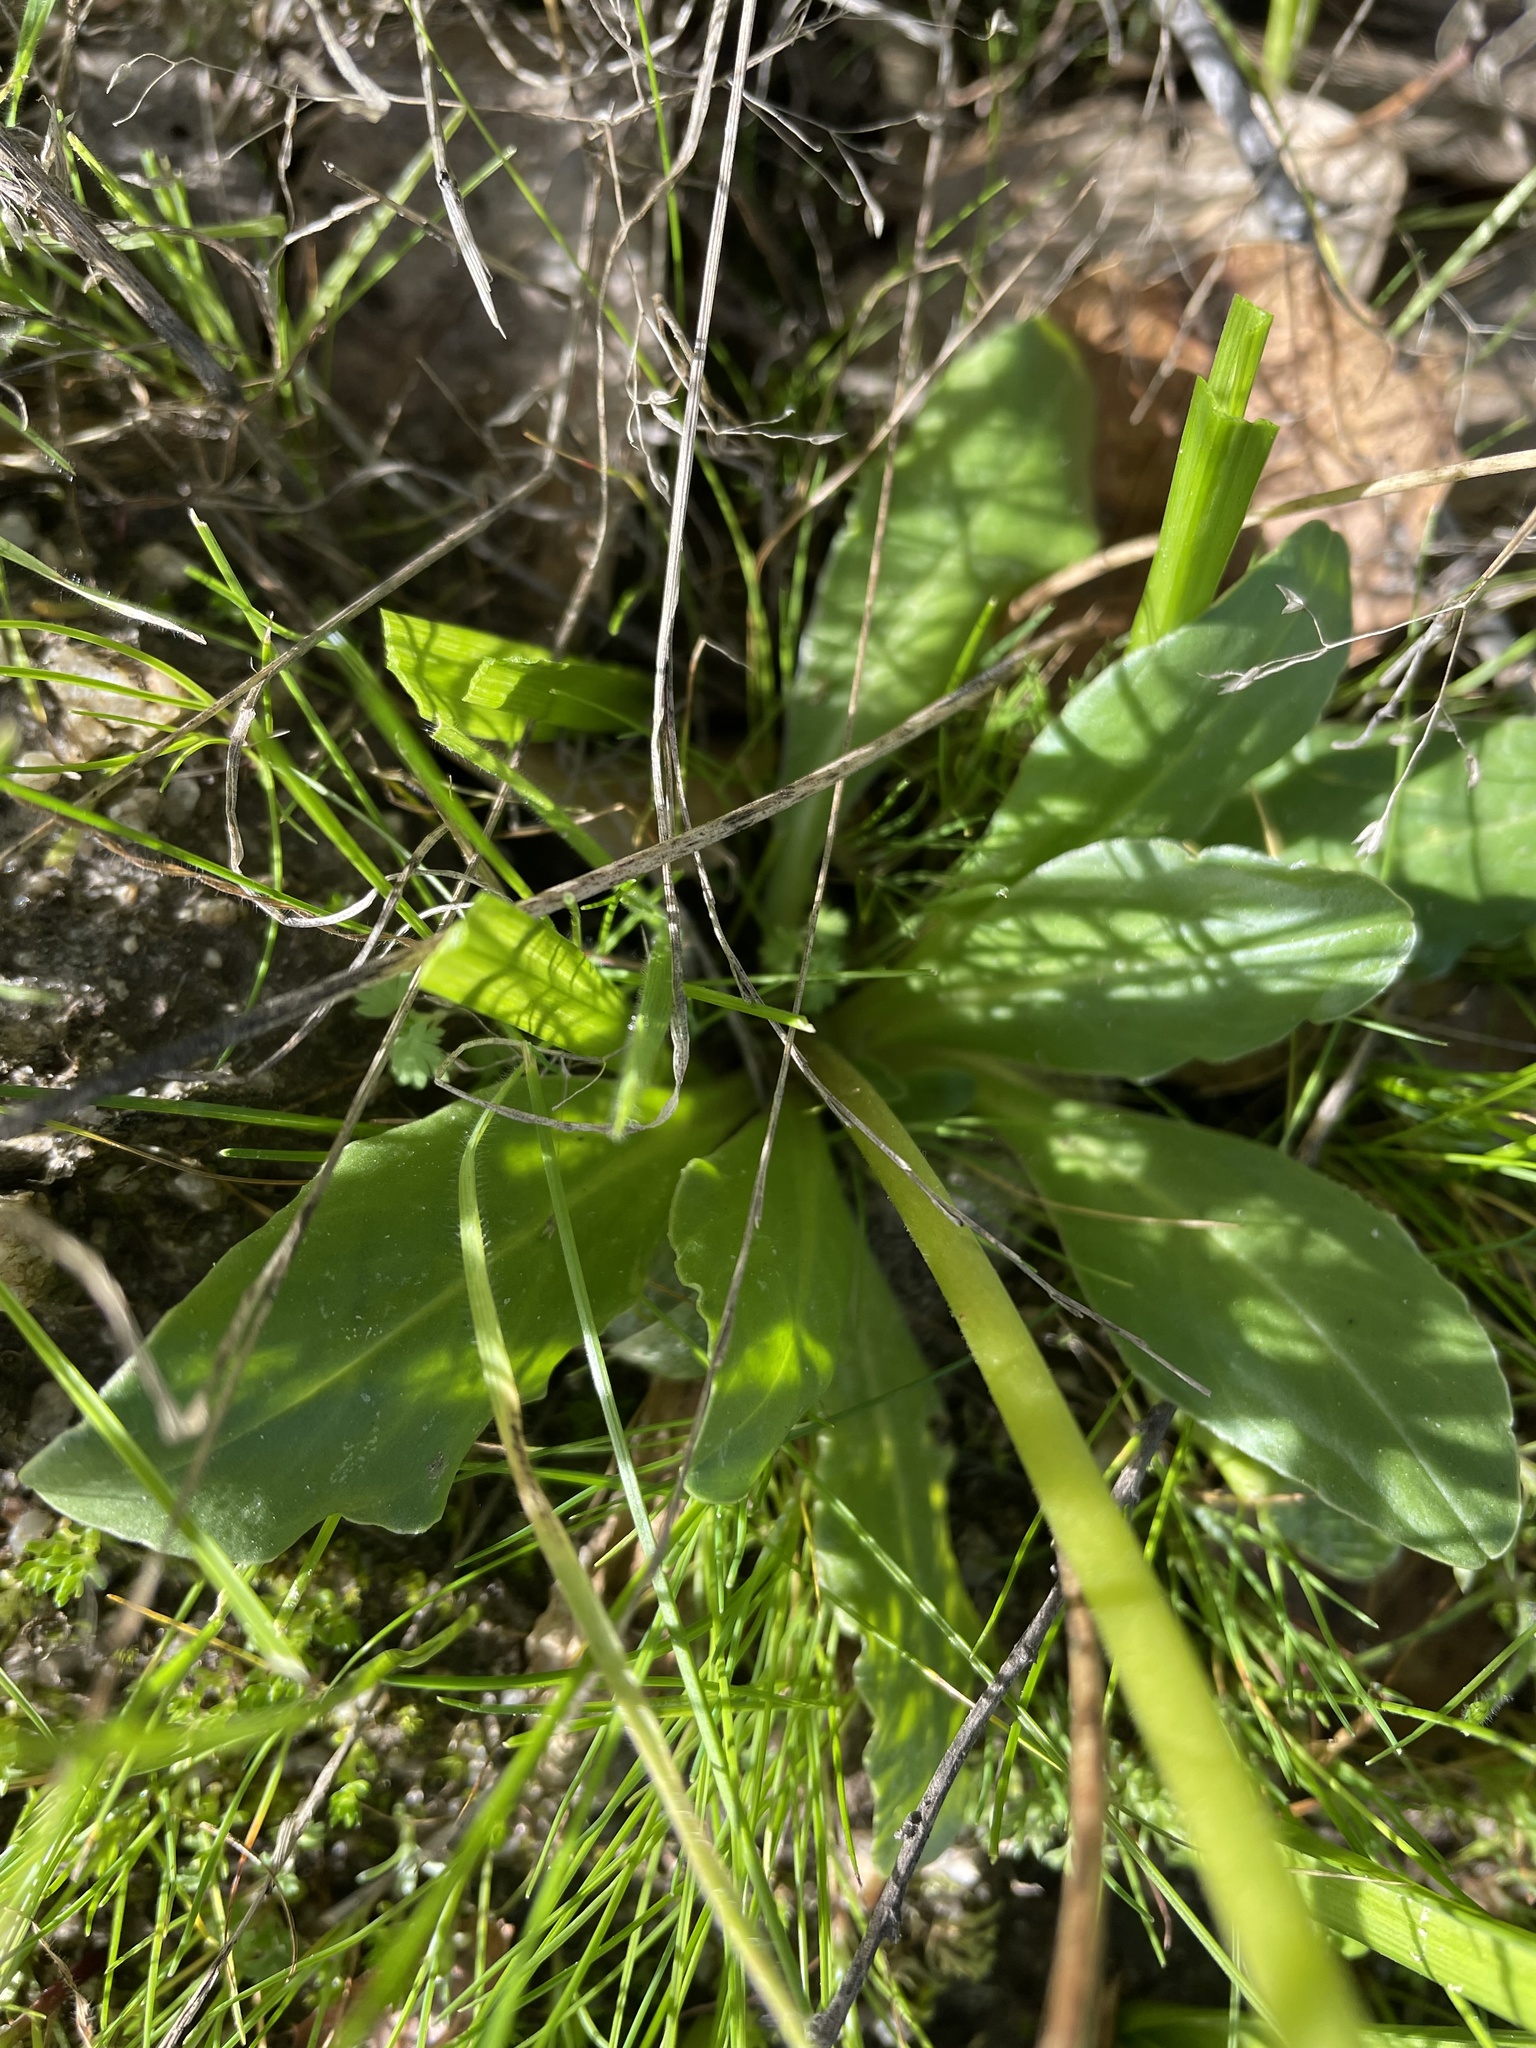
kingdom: Plantae
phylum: Tracheophyta
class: Magnoliopsida
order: Ericales
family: Primulaceae
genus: Dodecatheon
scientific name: Dodecatheon clevelandii
